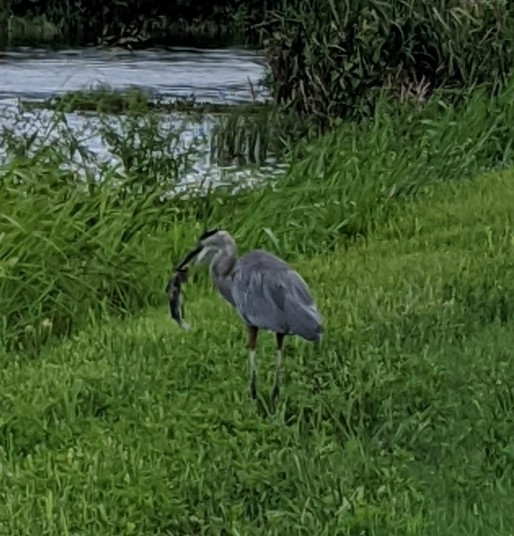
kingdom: Animalia
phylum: Chordata
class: Aves
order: Pelecaniformes
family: Ardeidae
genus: Ardea
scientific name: Ardea herodias
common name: Great blue heron
